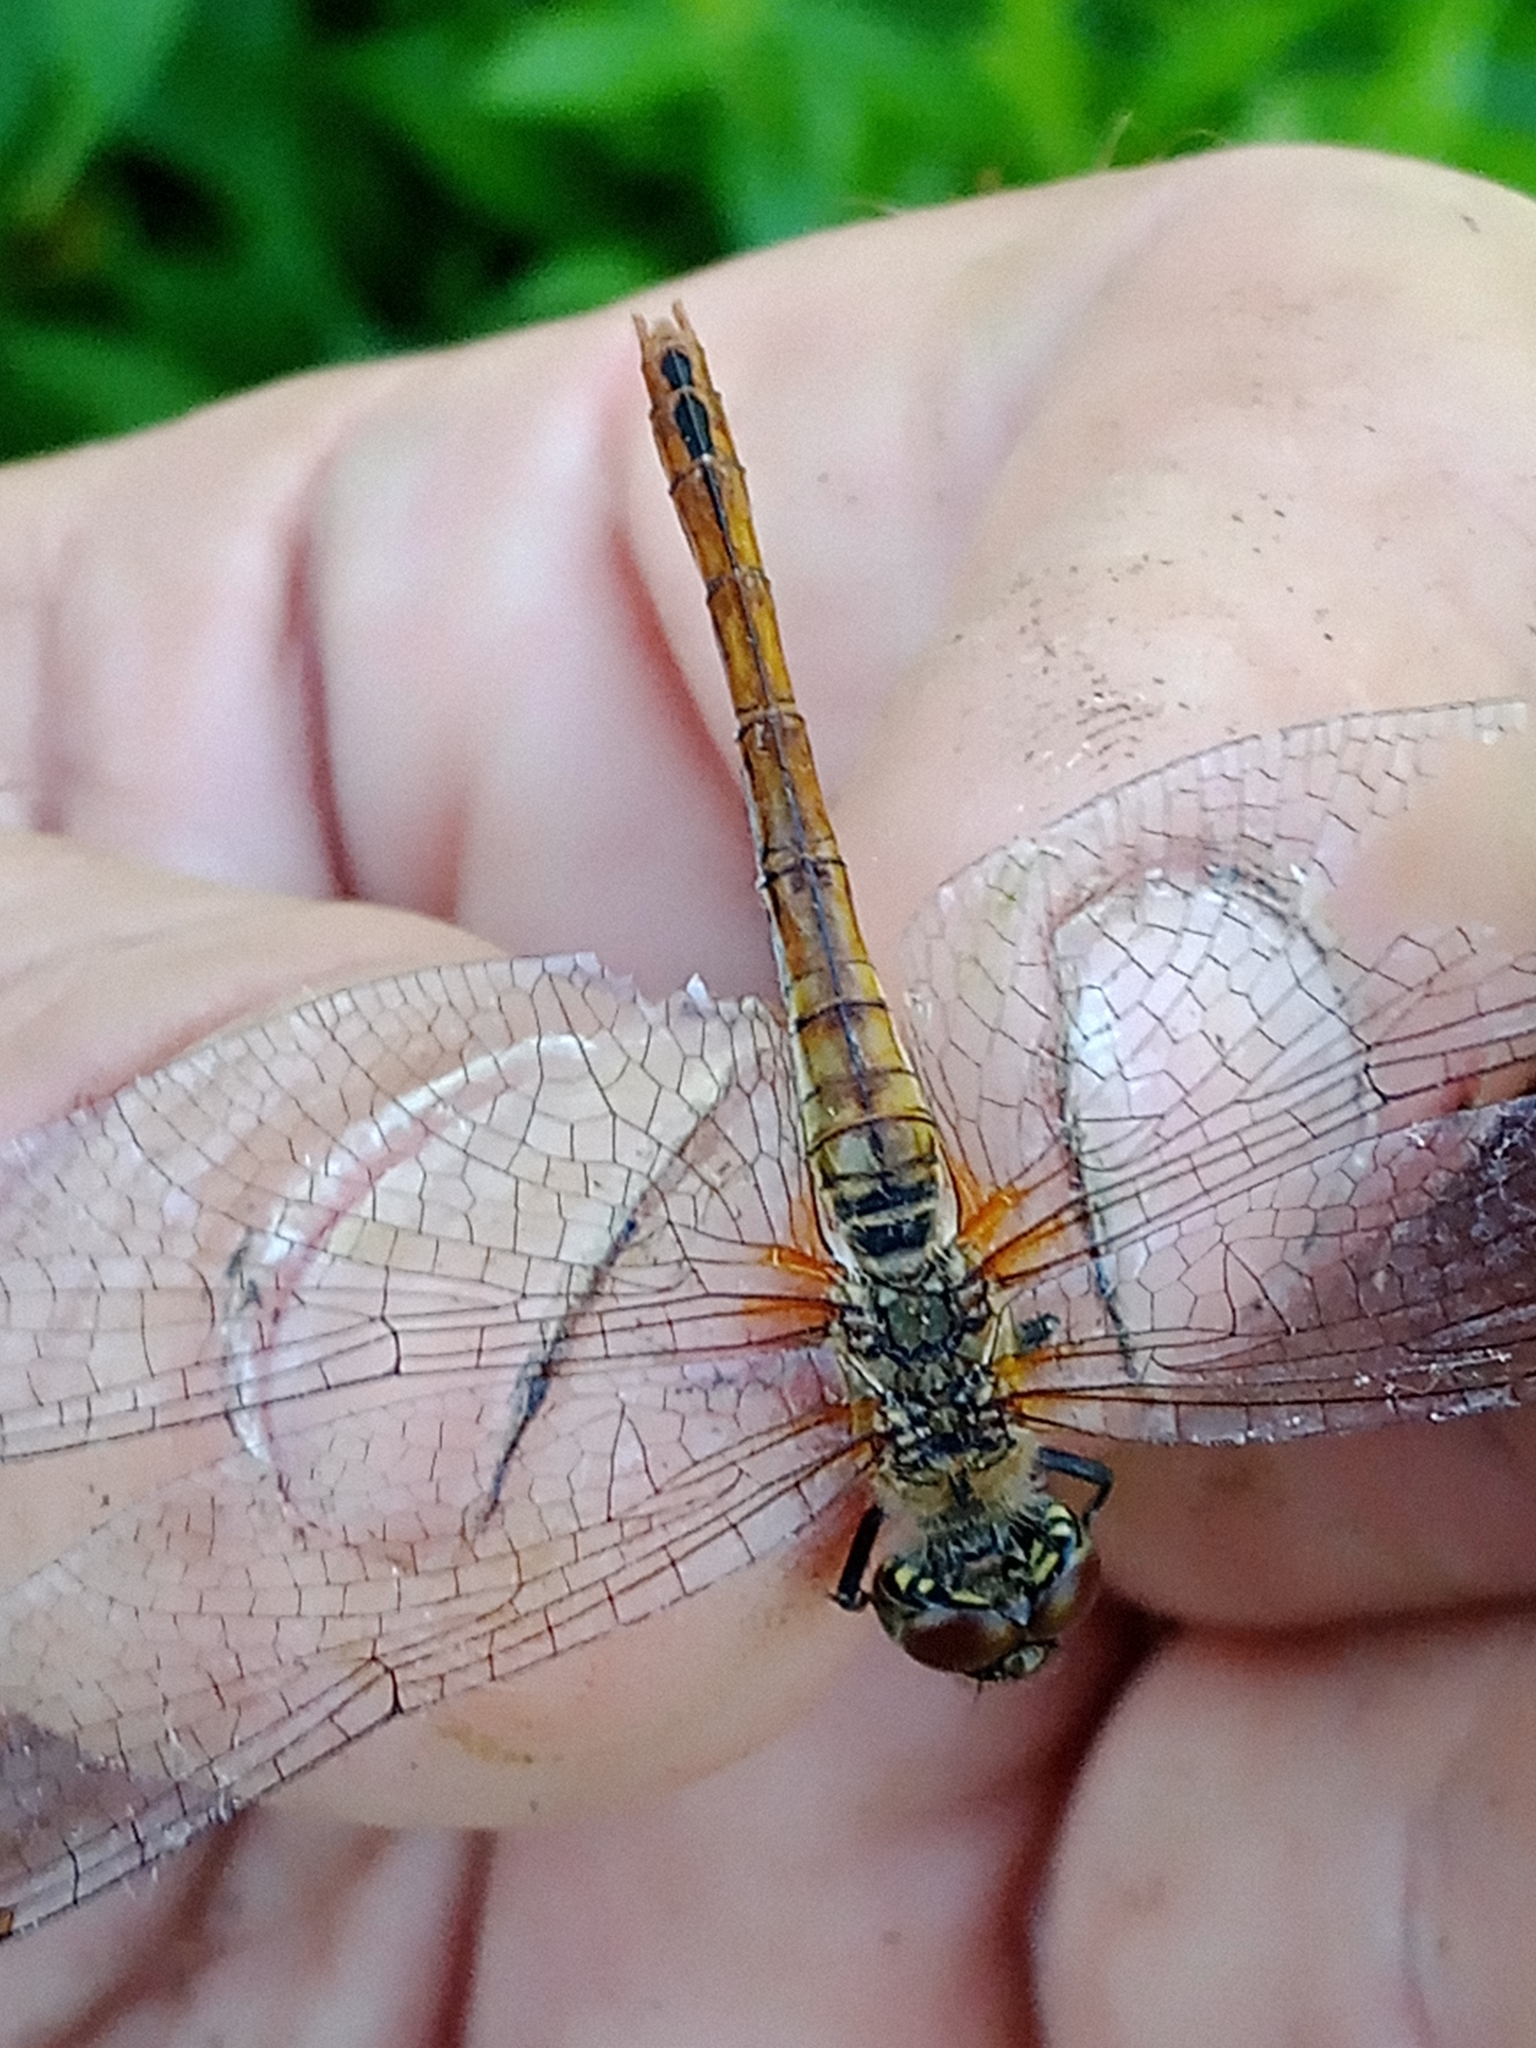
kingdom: Animalia
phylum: Arthropoda
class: Insecta
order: Odonata
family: Libellulidae
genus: Sympetrum
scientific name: Sympetrum sanguineum
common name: Ruddy darter
